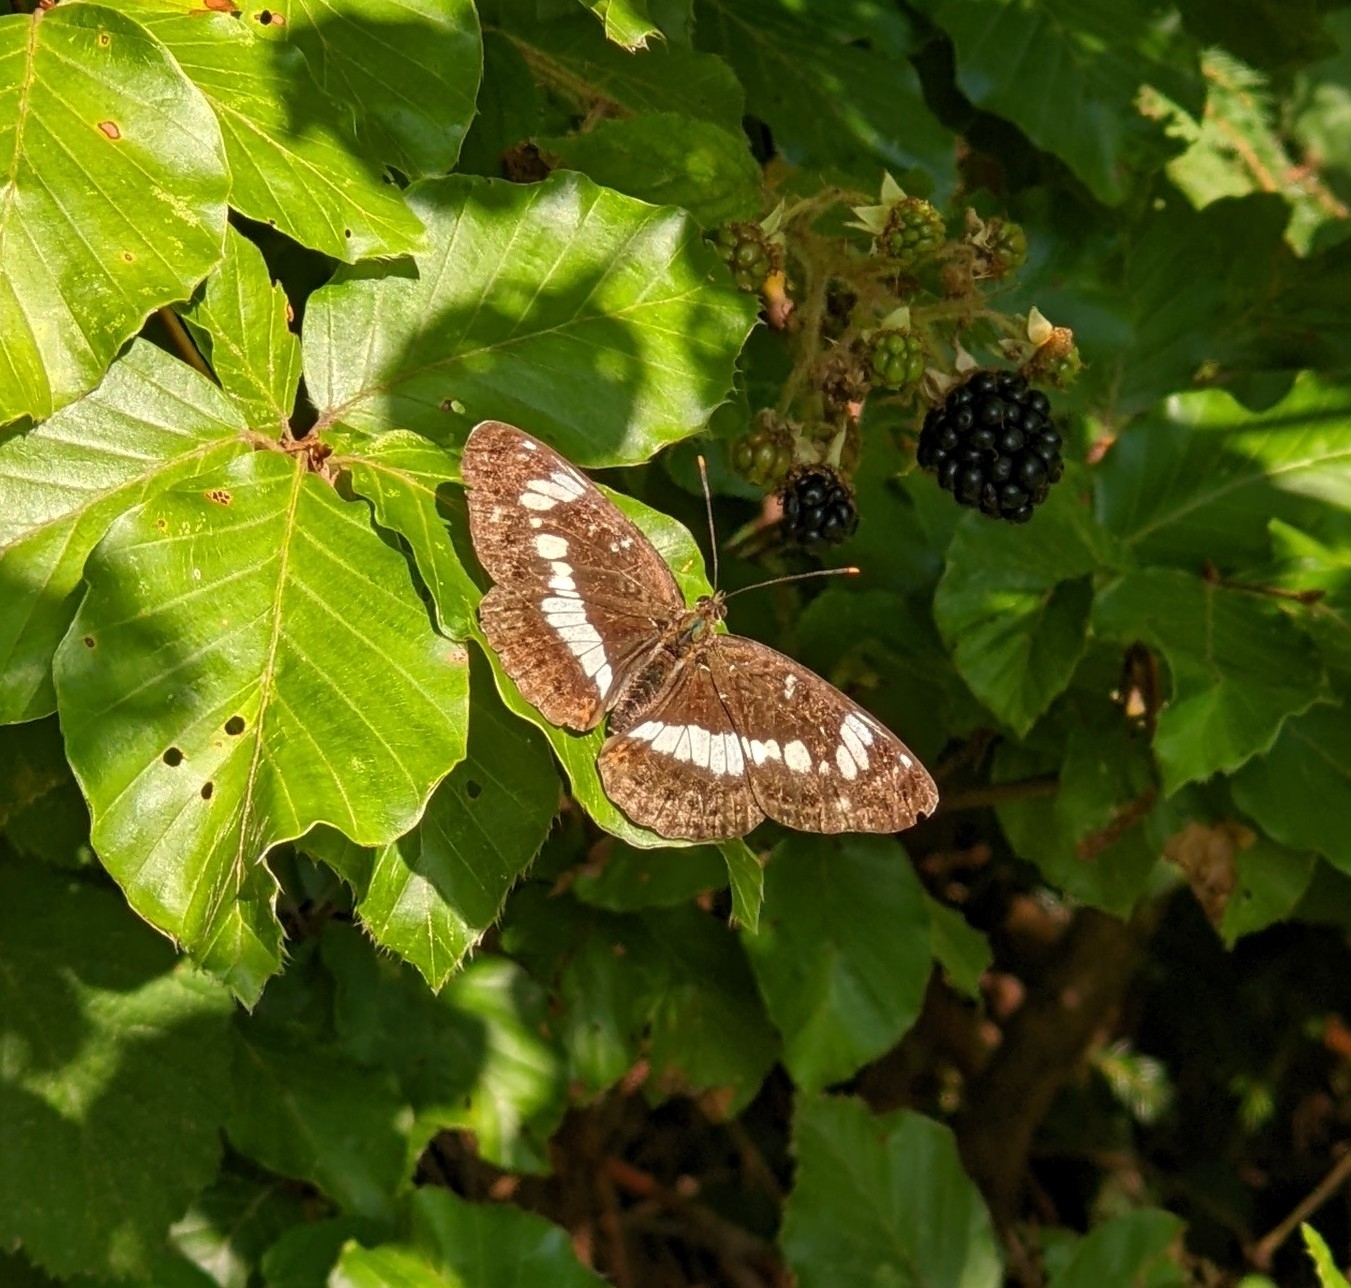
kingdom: Animalia
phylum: Arthropoda
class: Insecta
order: Lepidoptera
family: Nymphalidae
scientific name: Nymphalidae
